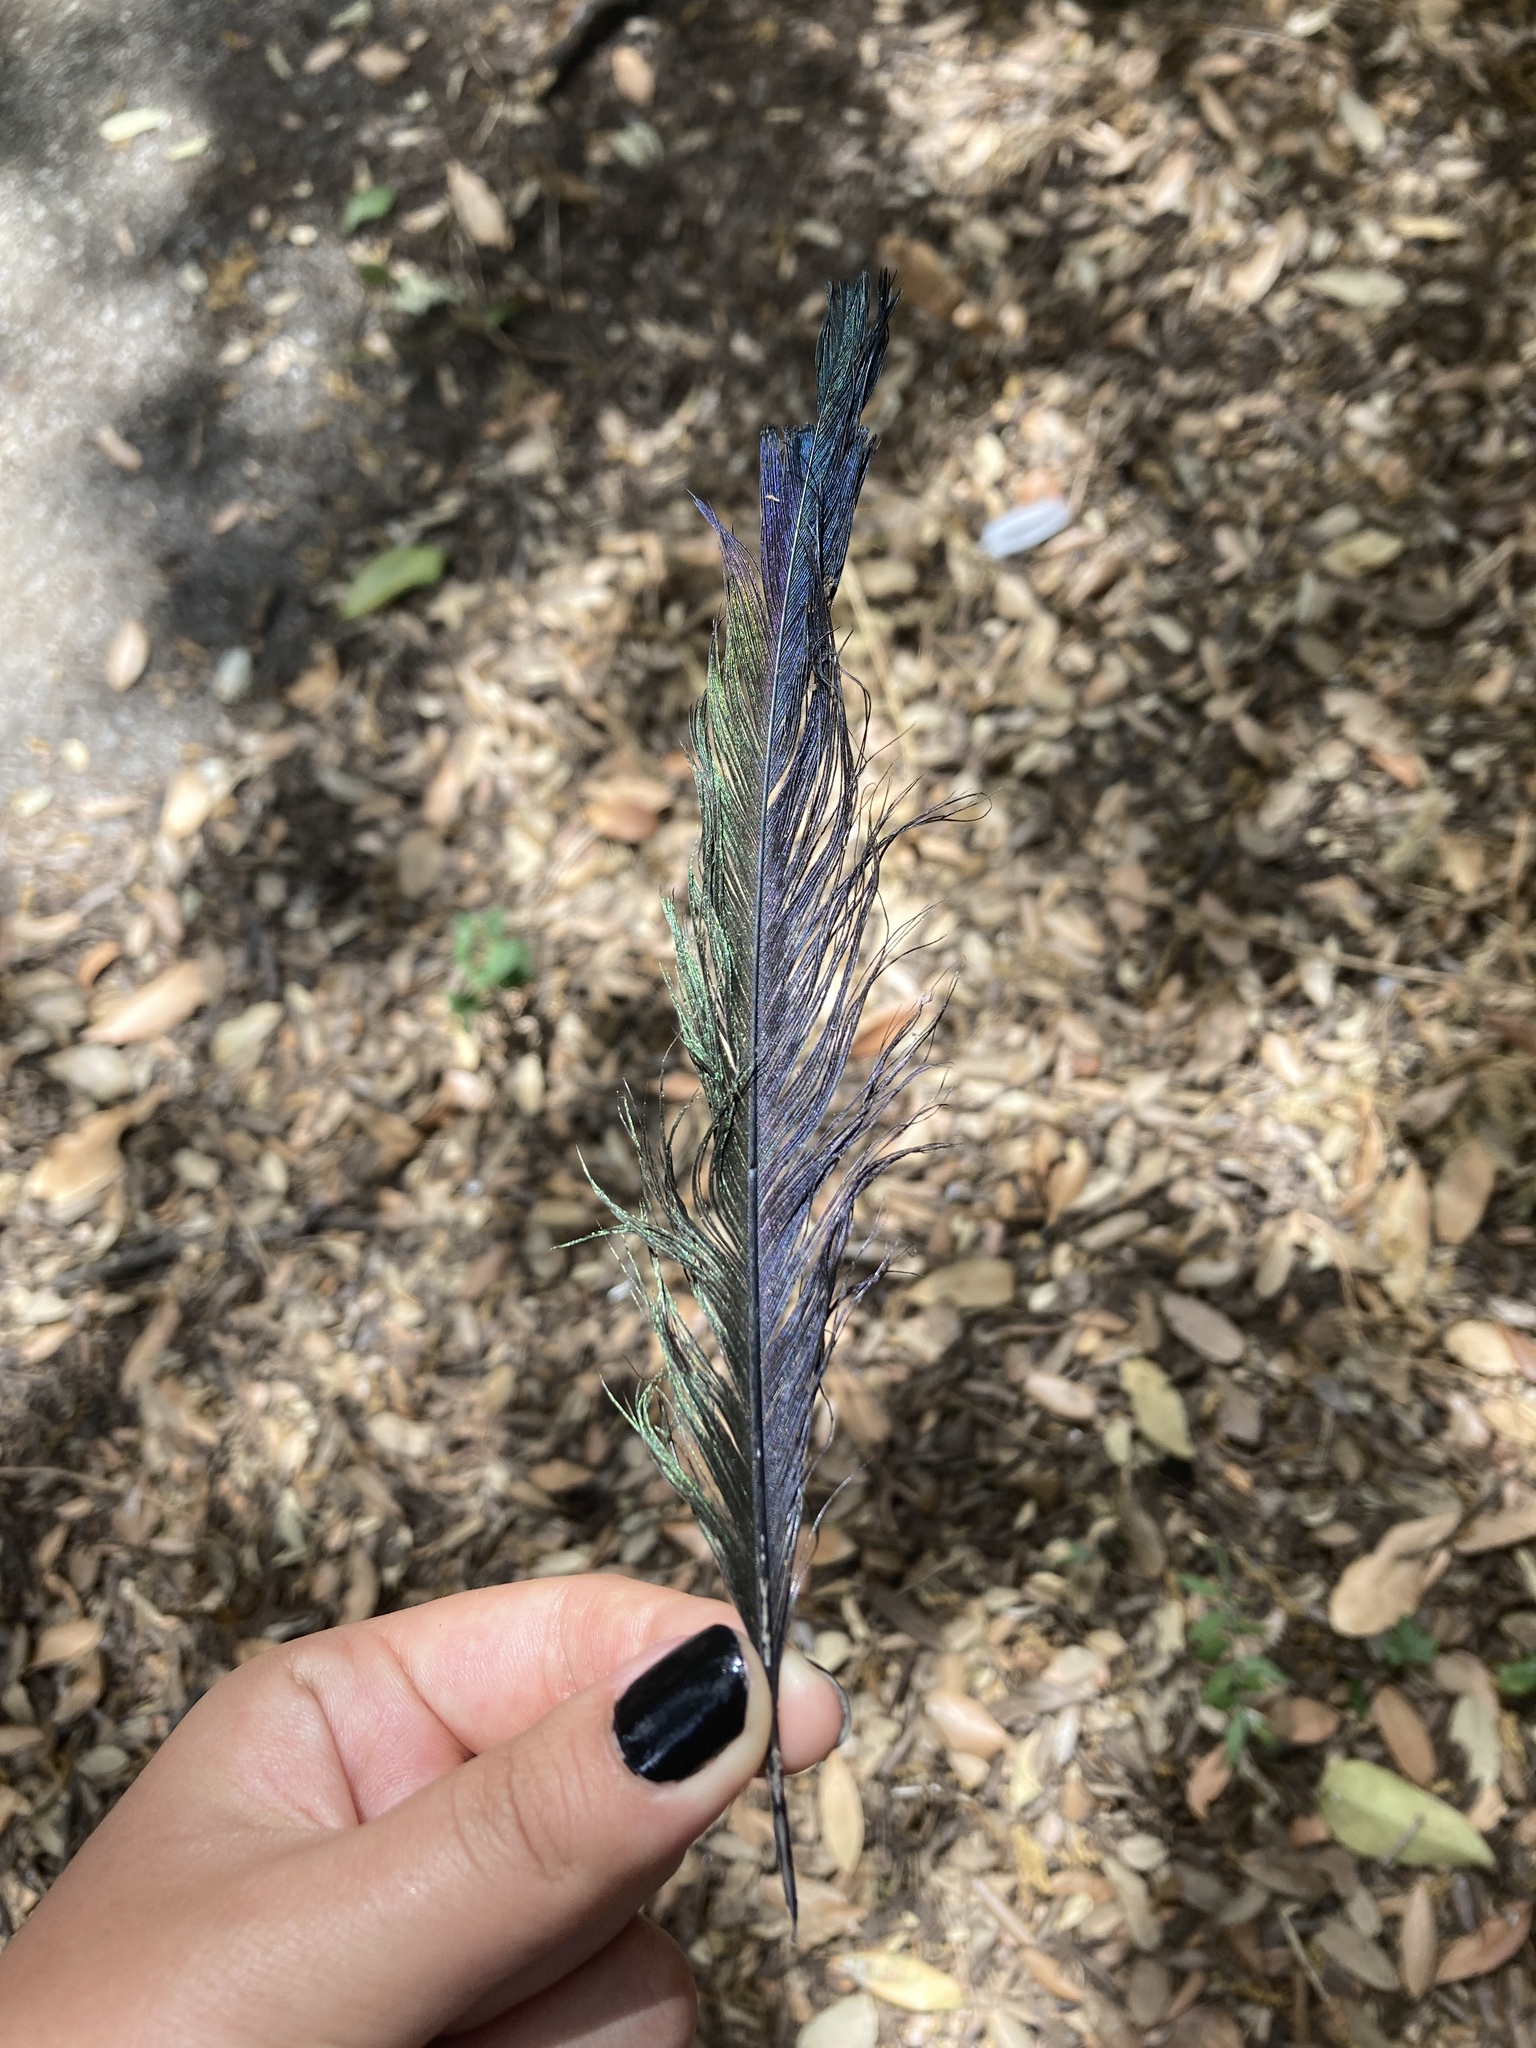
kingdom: Animalia
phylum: Chordata
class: Aves
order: Passeriformes
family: Corvidae
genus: Pica
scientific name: Pica pica
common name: Eurasian magpie
